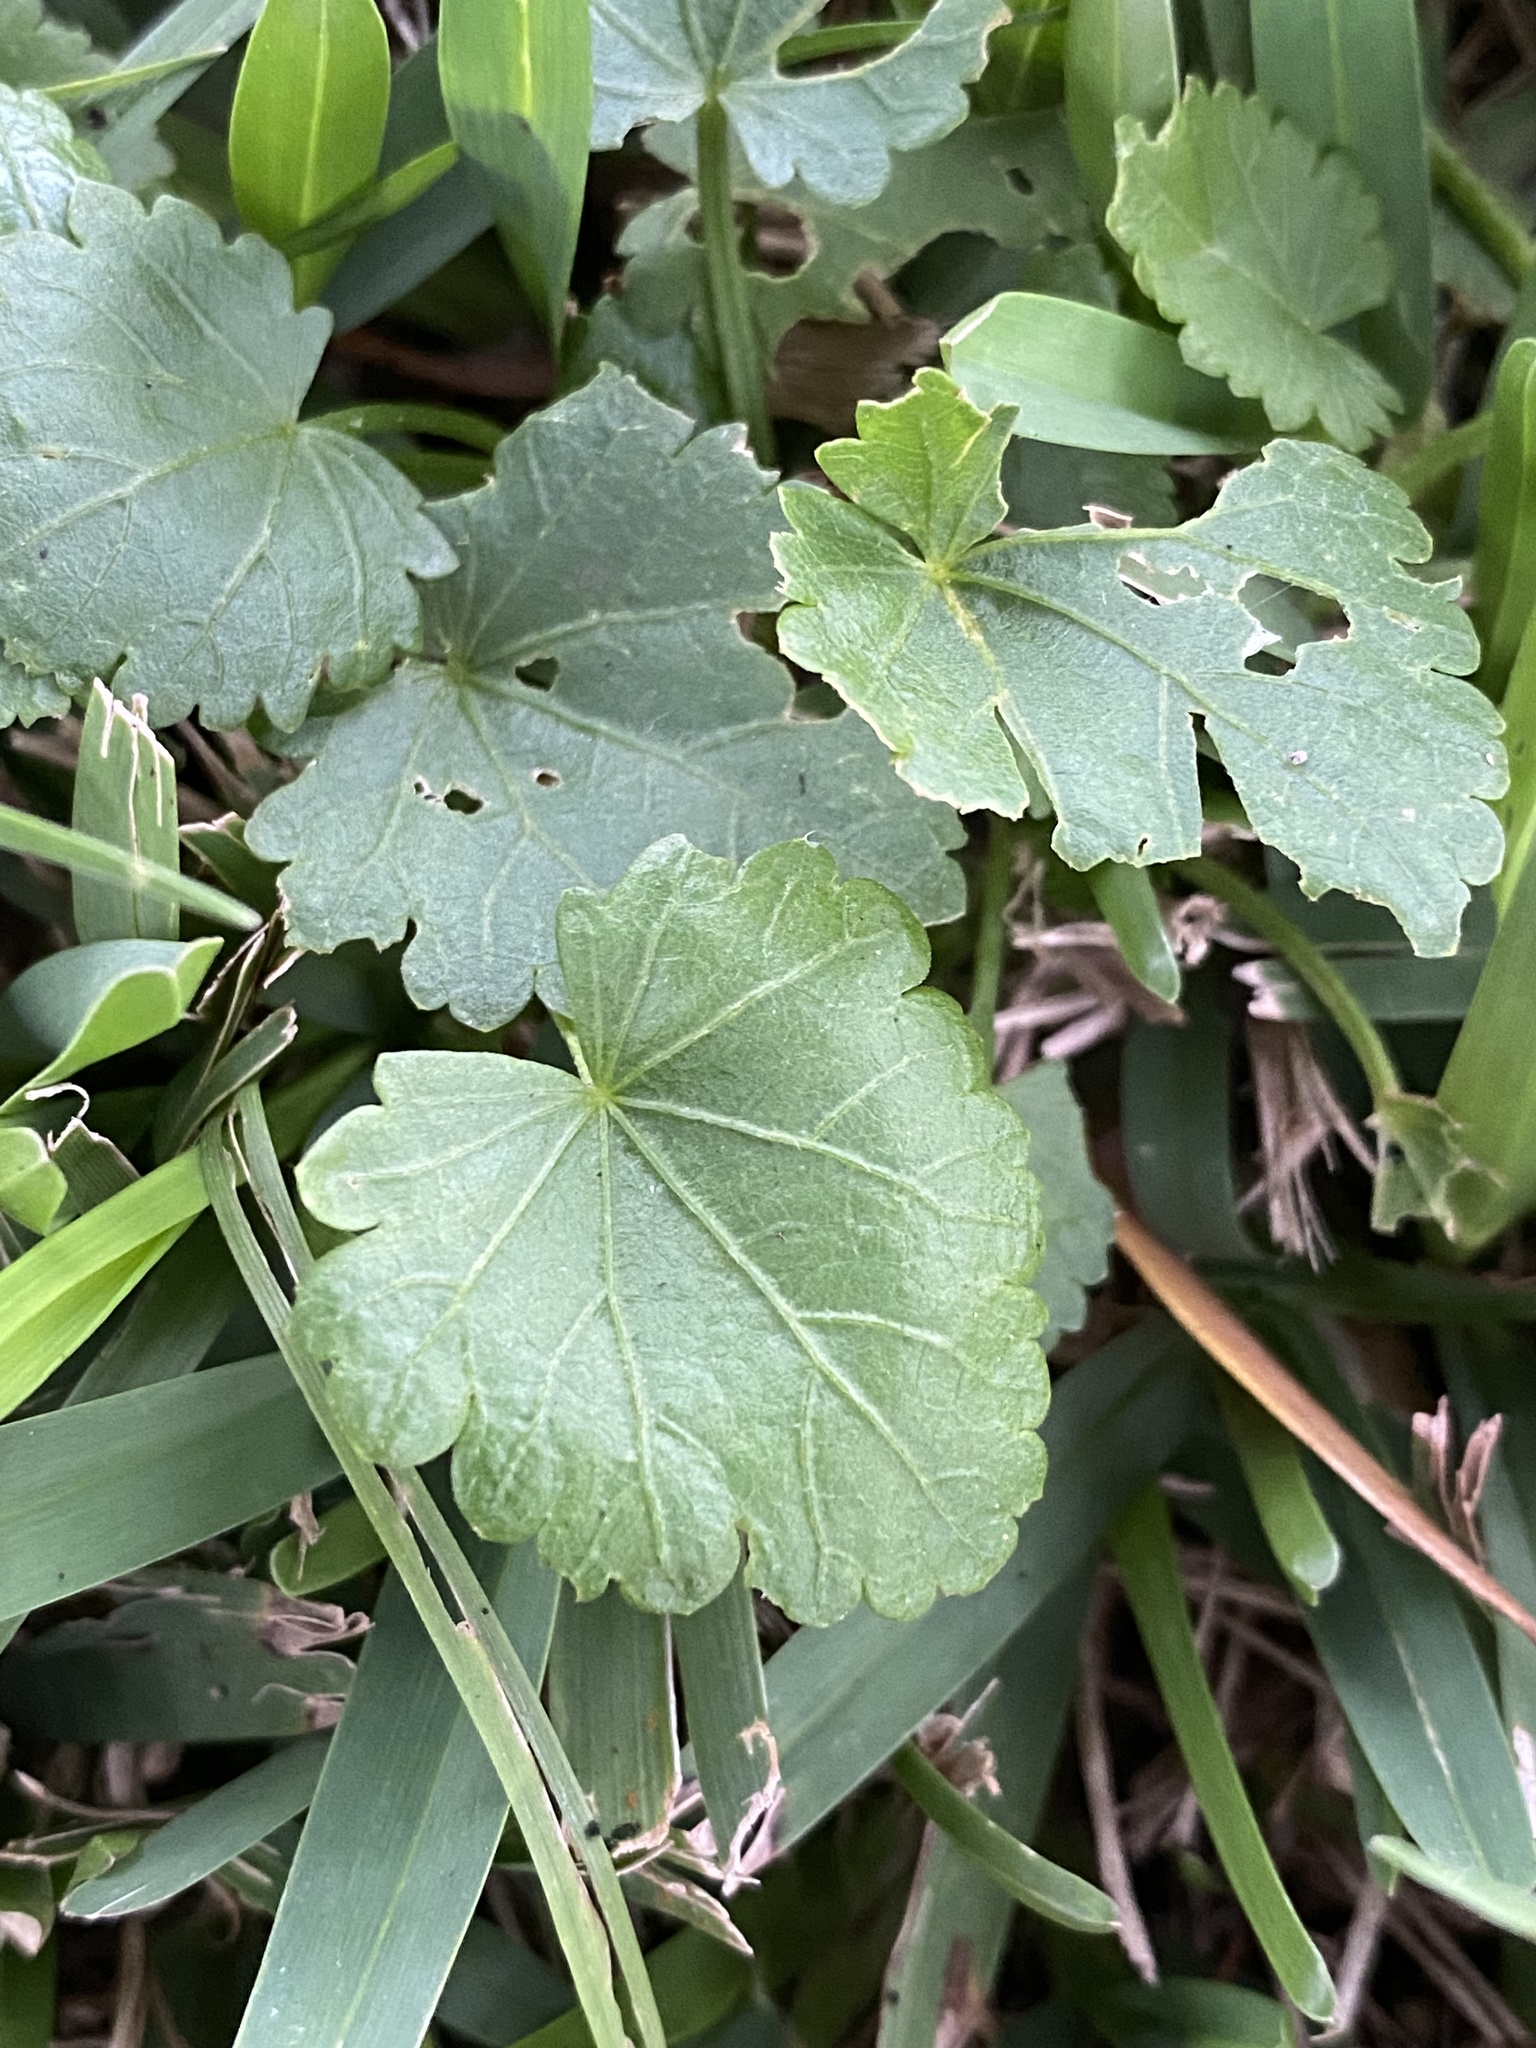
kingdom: Plantae
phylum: Tracheophyta
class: Magnoliopsida
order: Malvales
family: Malvaceae
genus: Modiola
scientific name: Modiola caroliniana
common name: Carolina bristlemallow
